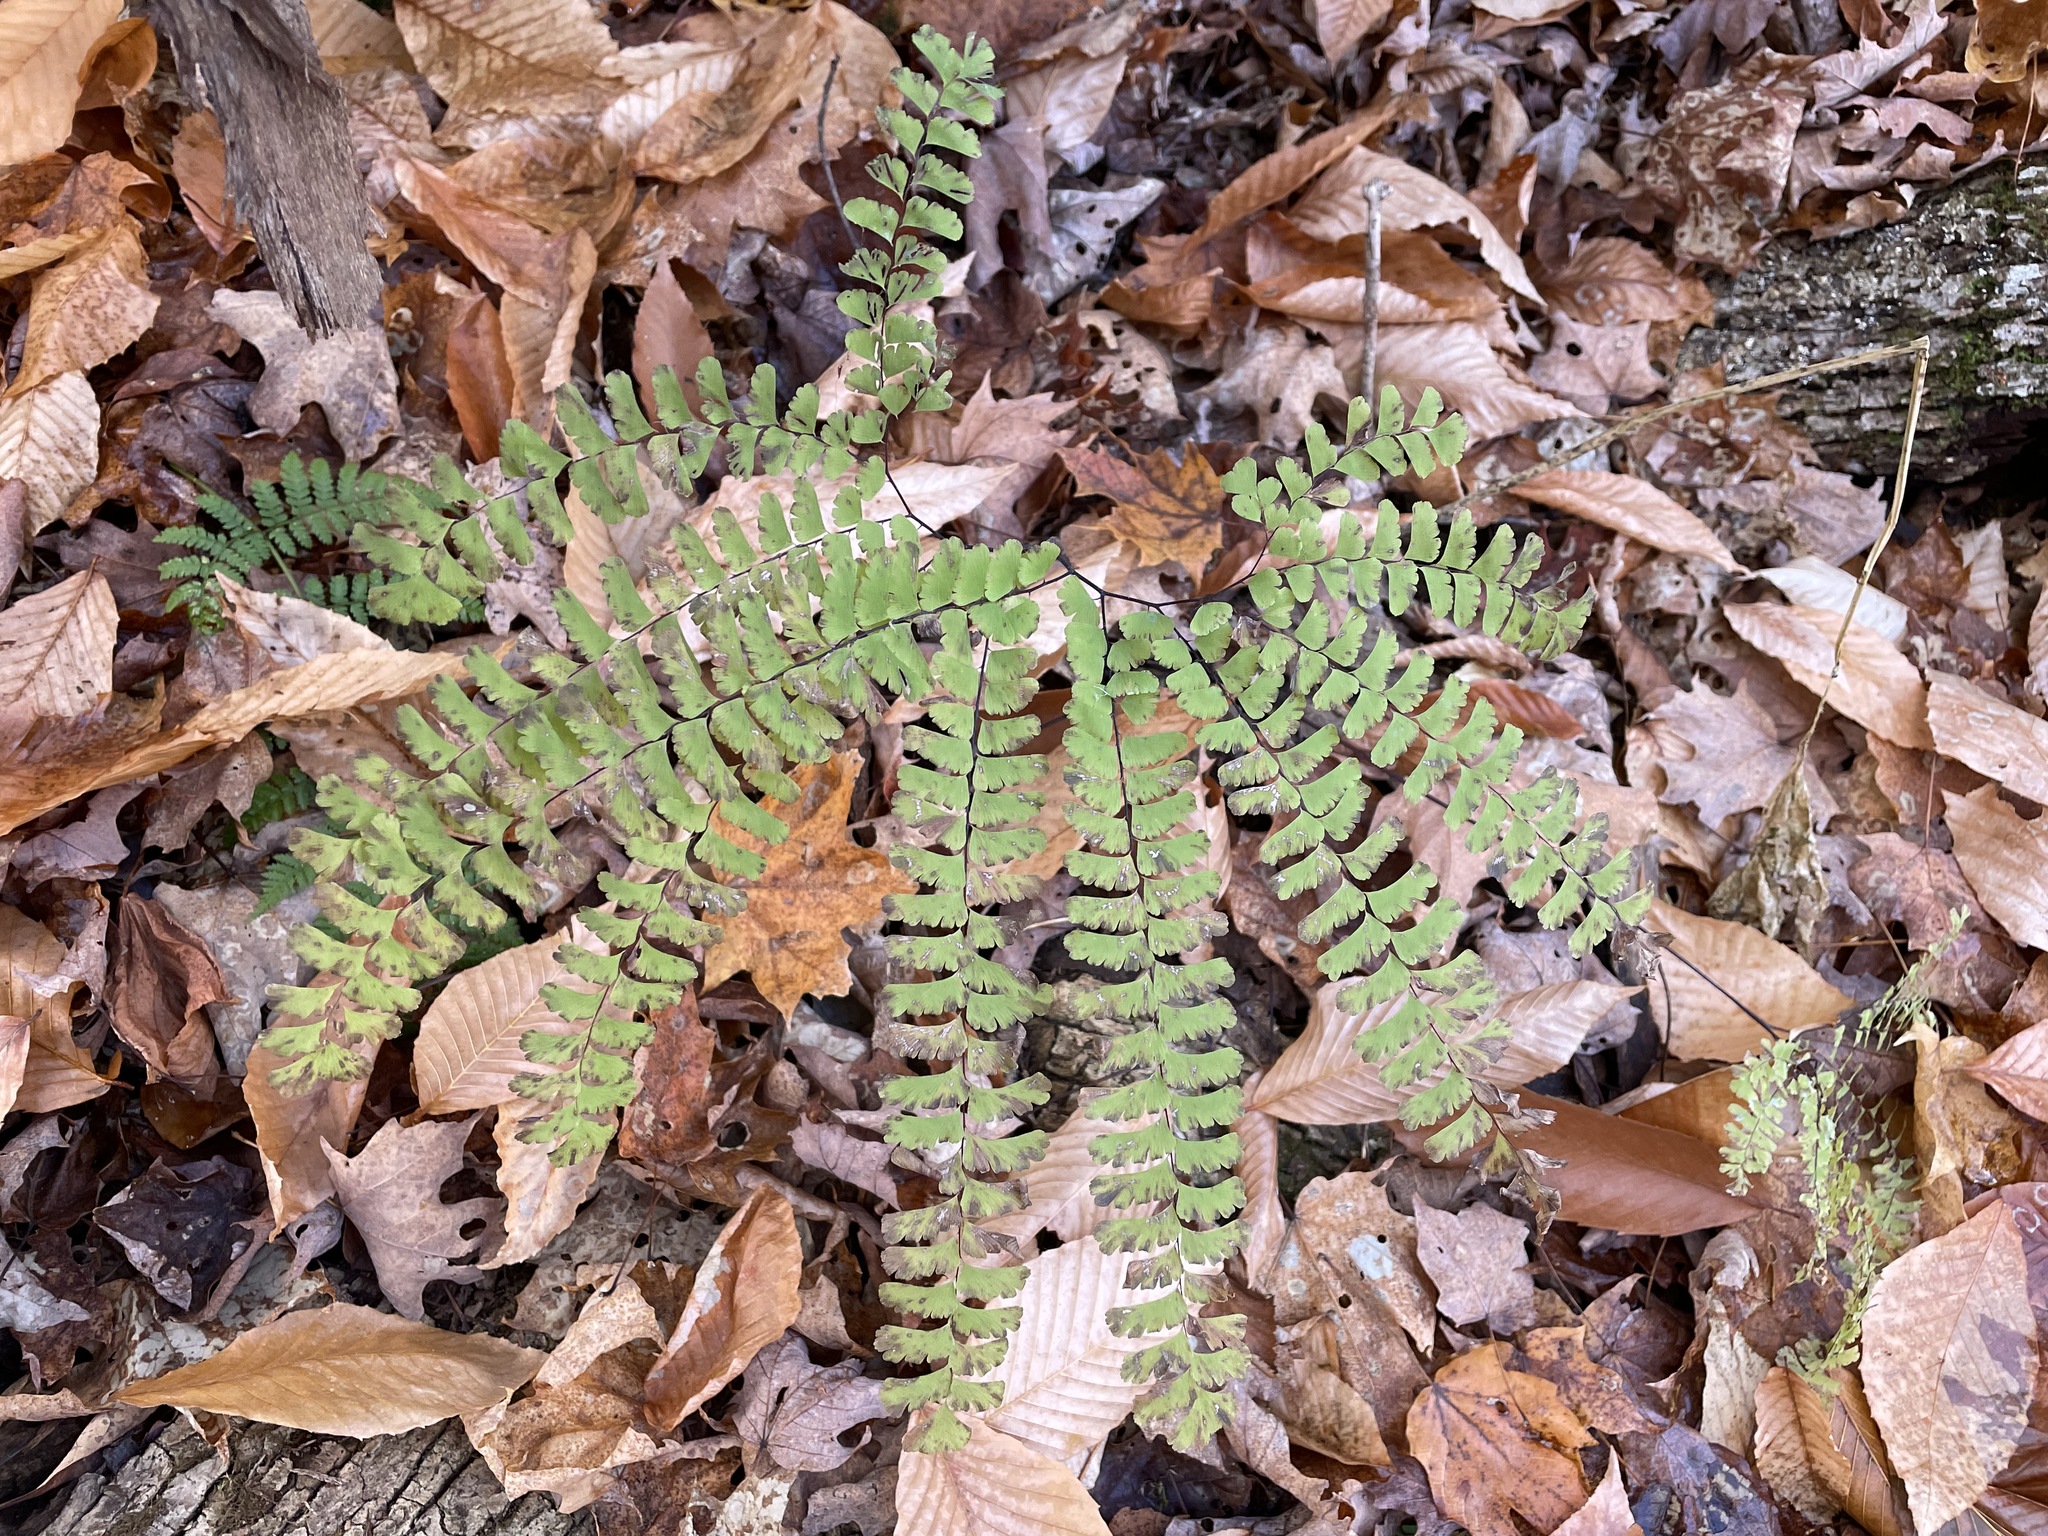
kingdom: Plantae
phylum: Tracheophyta
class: Polypodiopsida
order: Polypodiales
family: Pteridaceae
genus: Adiantum
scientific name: Adiantum pedatum
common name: Five-finger fern
